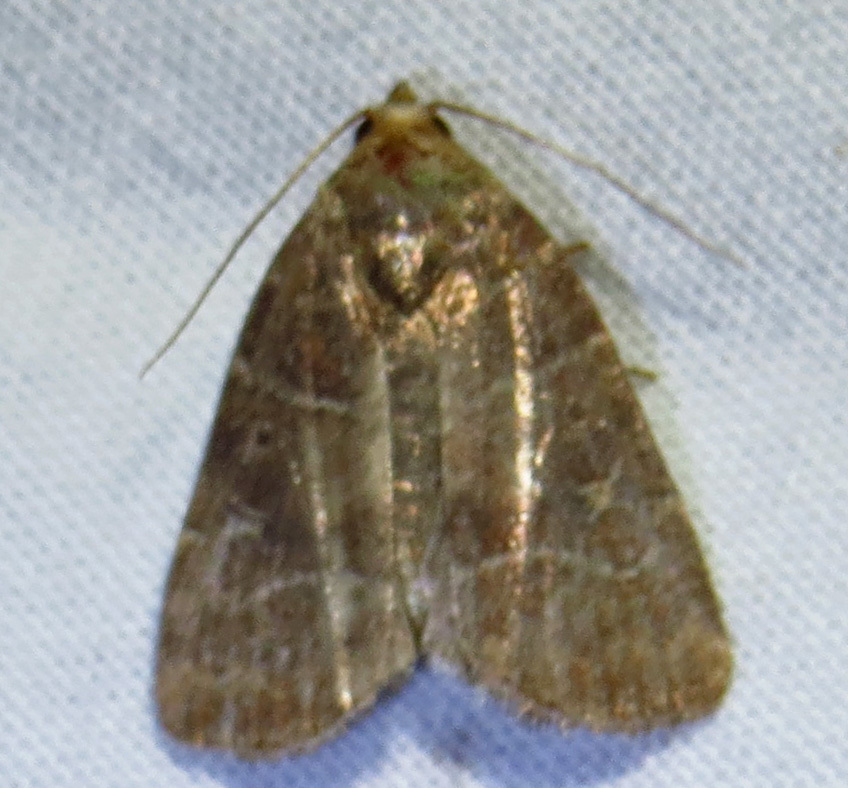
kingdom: Animalia
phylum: Arthropoda
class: Insecta
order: Lepidoptera
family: Noctuidae
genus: Elaphria
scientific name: Elaphria grata
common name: Grateful midget moth
